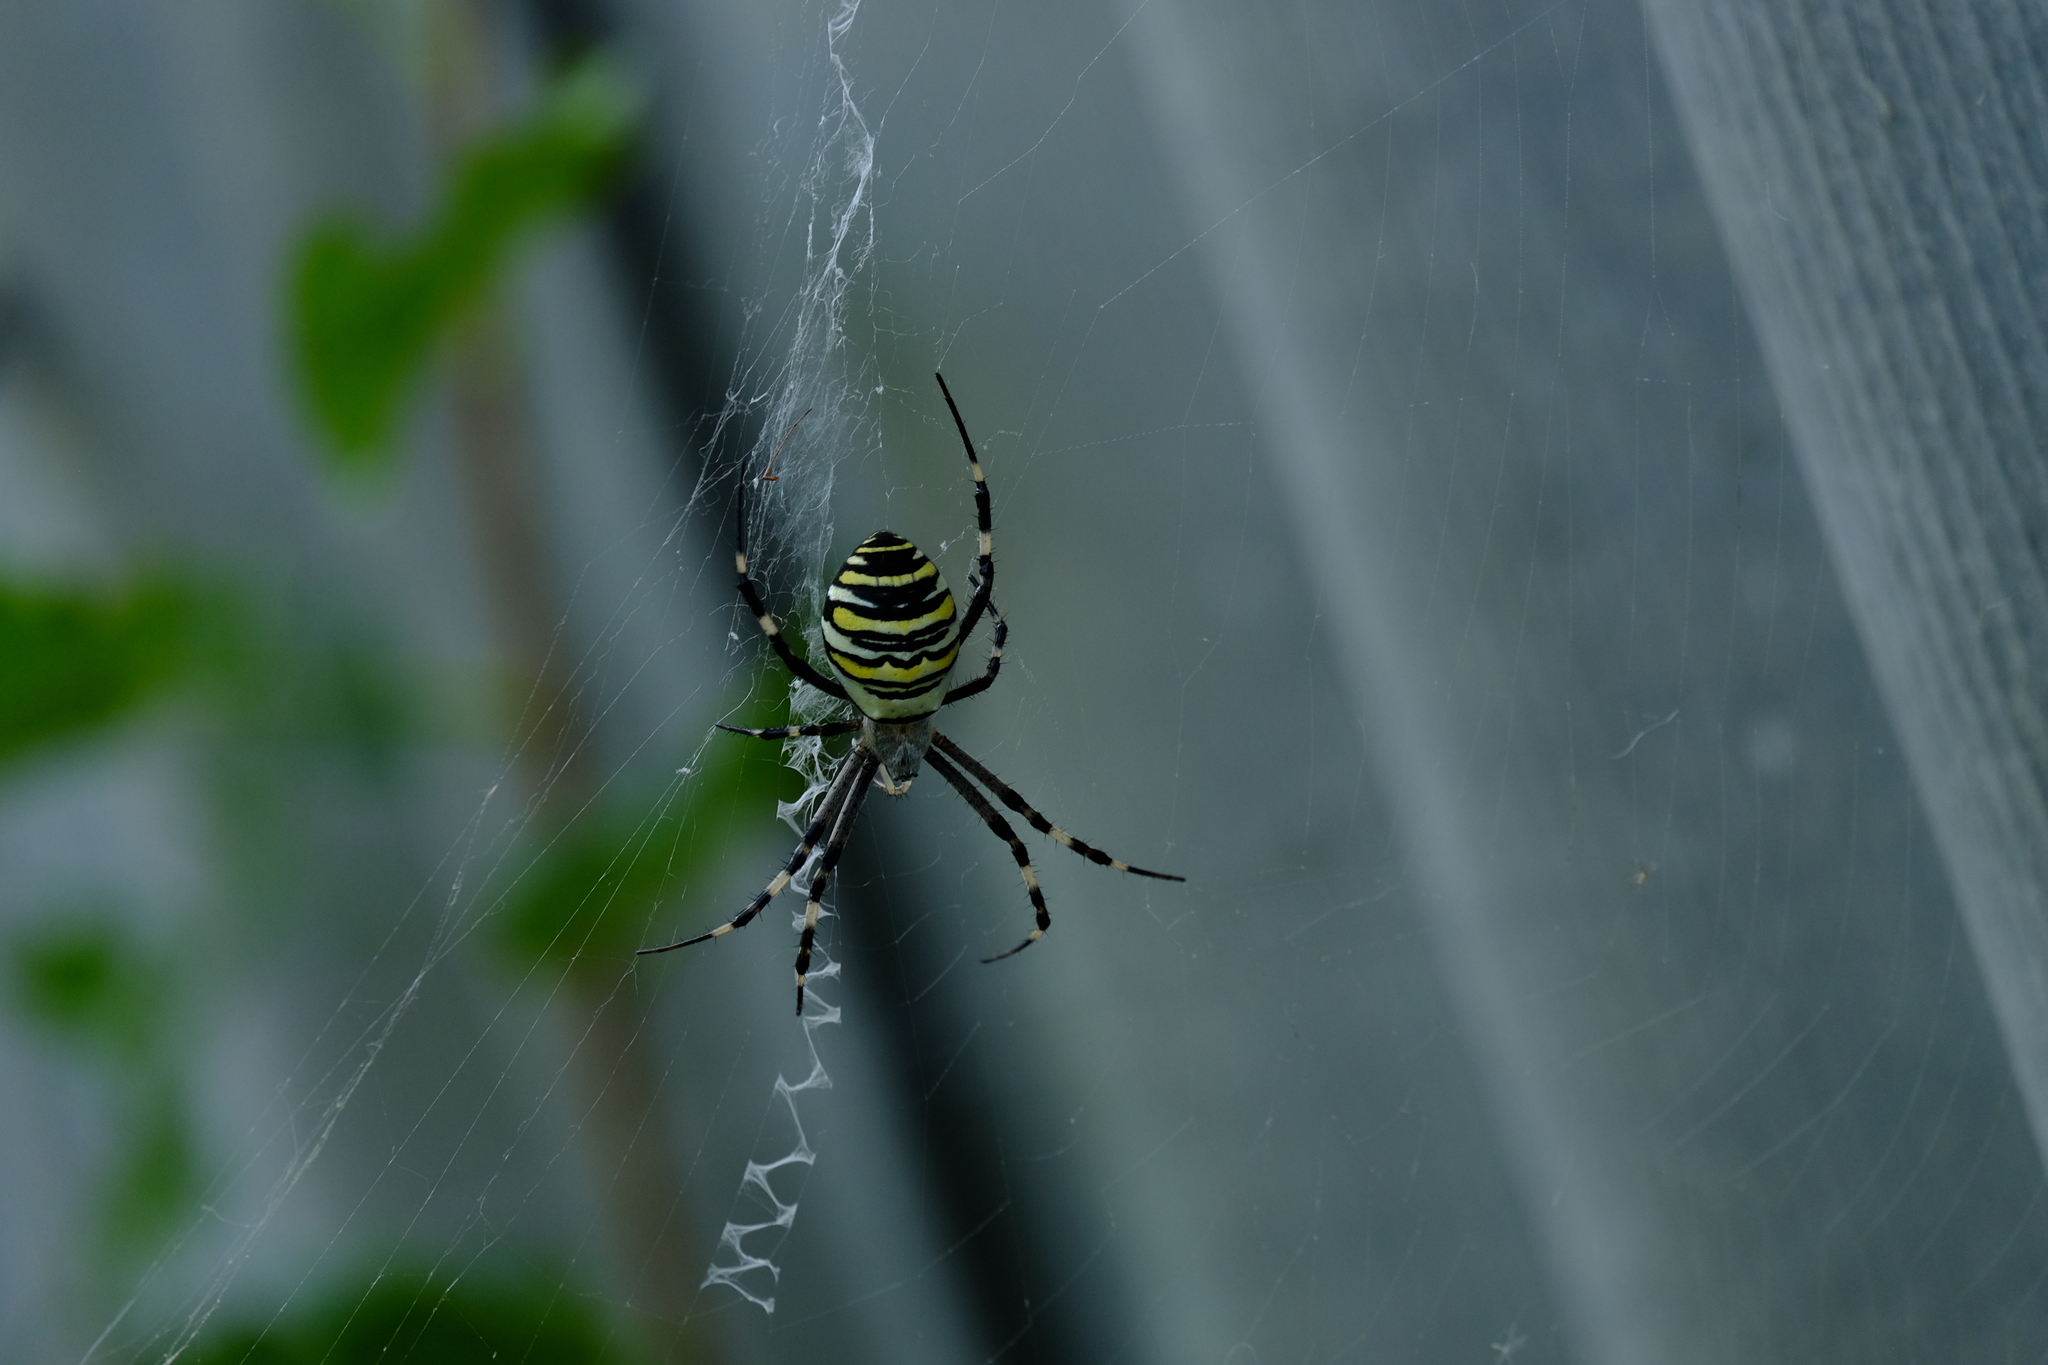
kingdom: Animalia
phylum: Arthropoda
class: Arachnida
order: Araneae
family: Araneidae
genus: Argiope
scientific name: Argiope bruennichi
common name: Wasp spider
